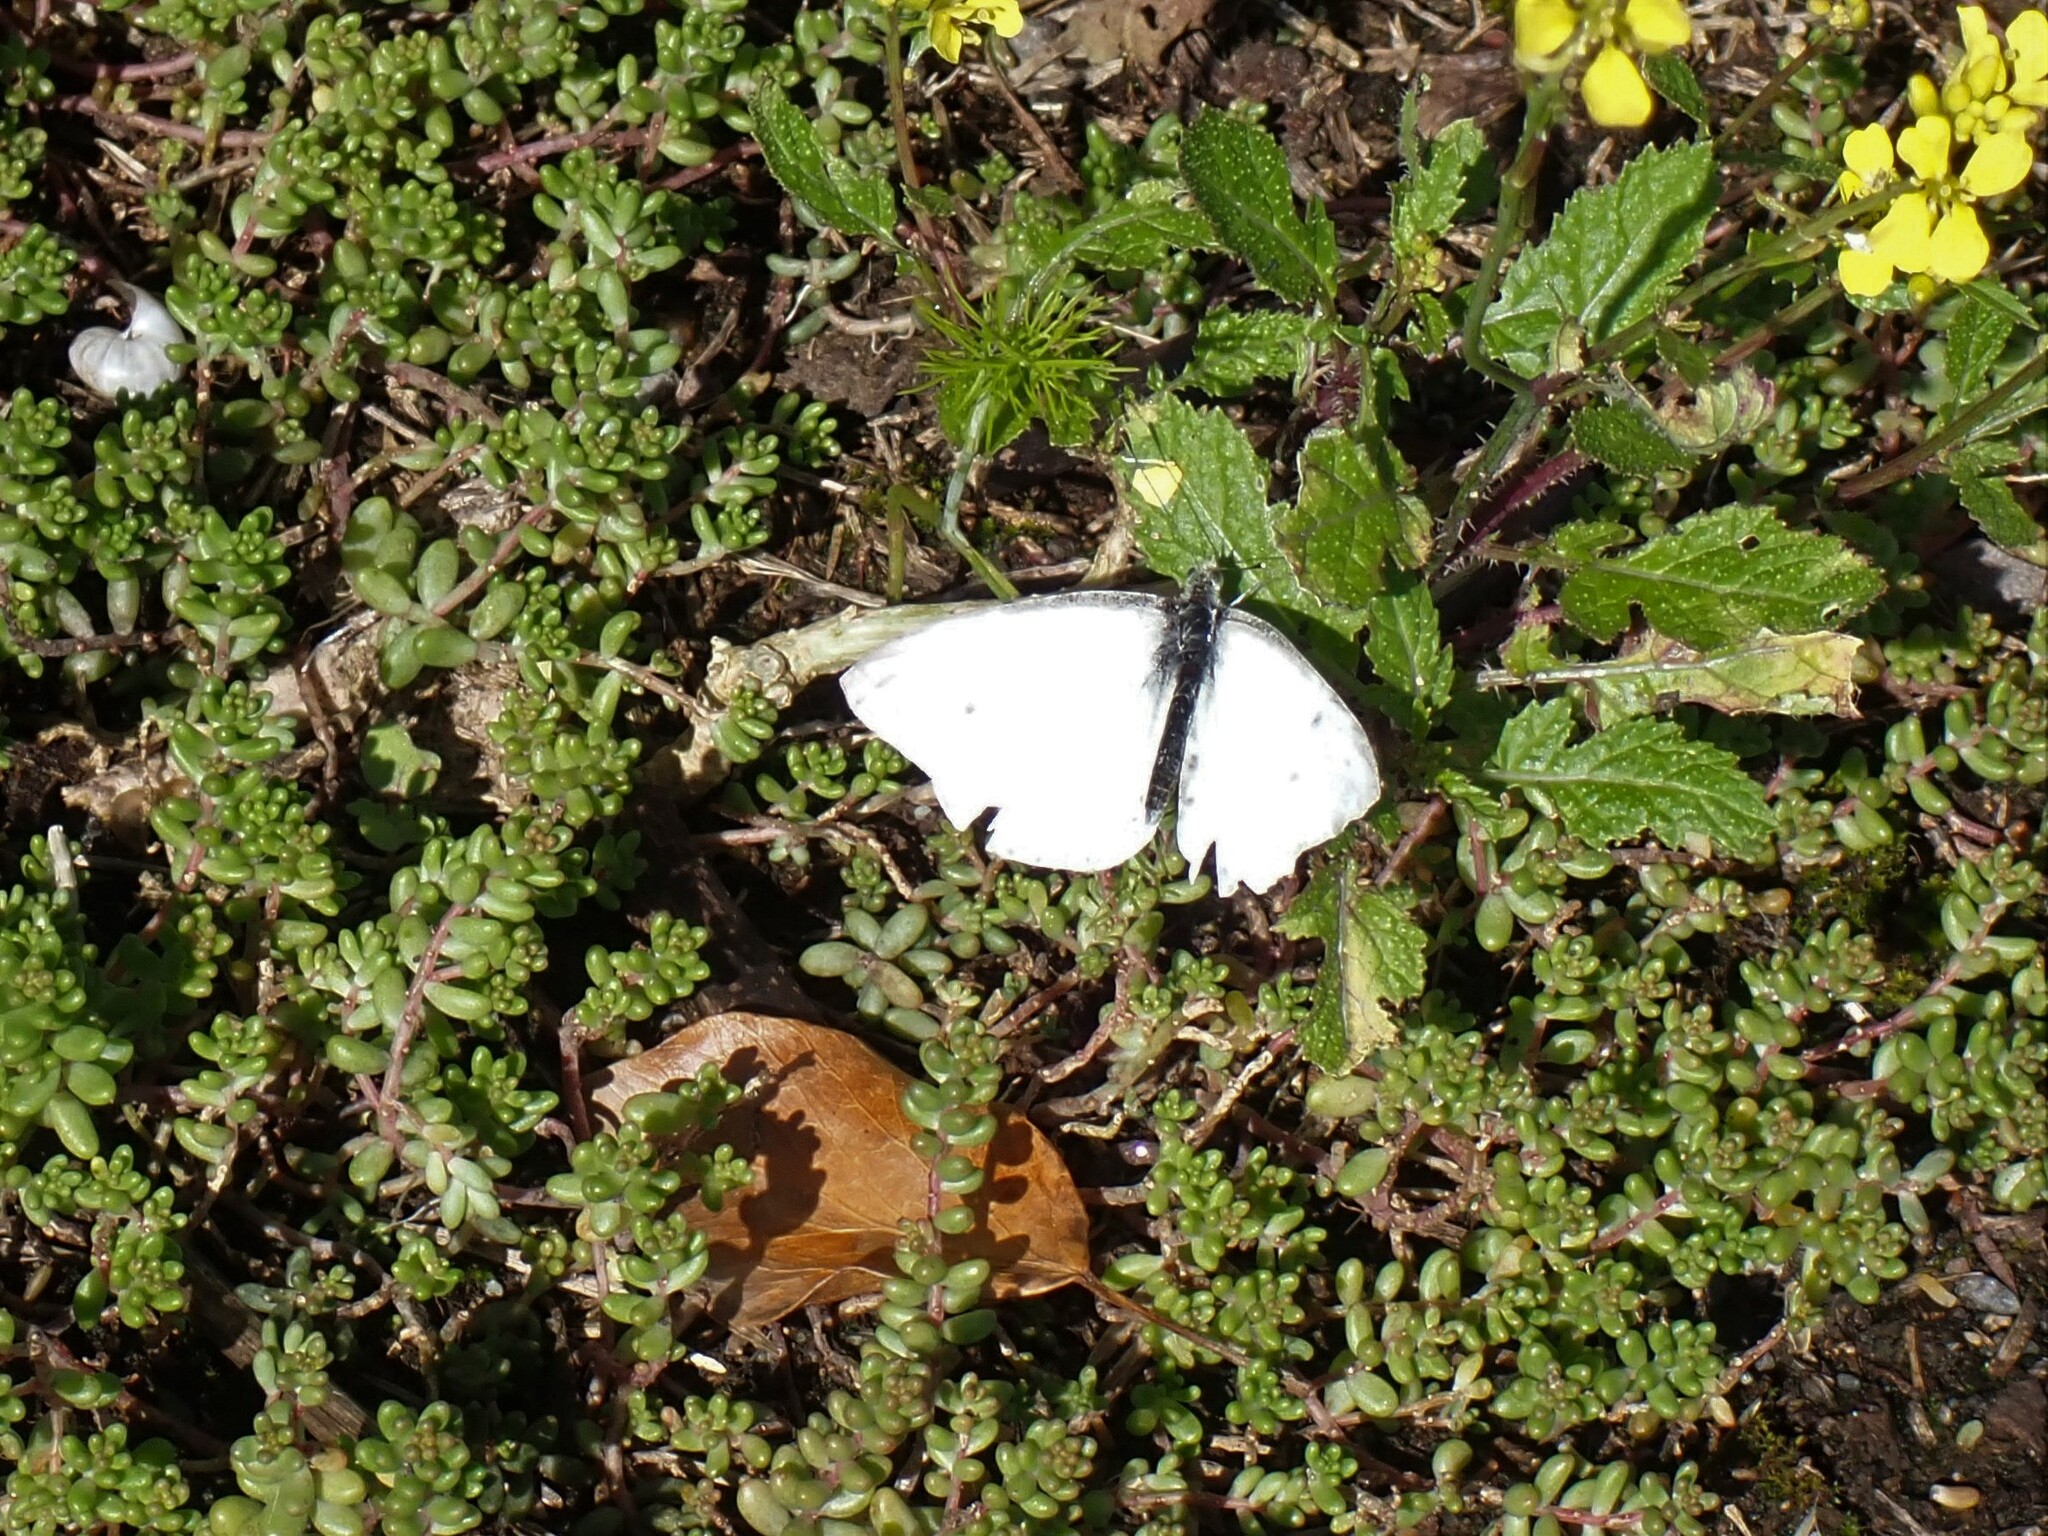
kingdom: Animalia
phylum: Arthropoda
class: Insecta
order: Lepidoptera
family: Pieridae
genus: Pieris
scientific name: Pieris napi
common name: Green-veined white
